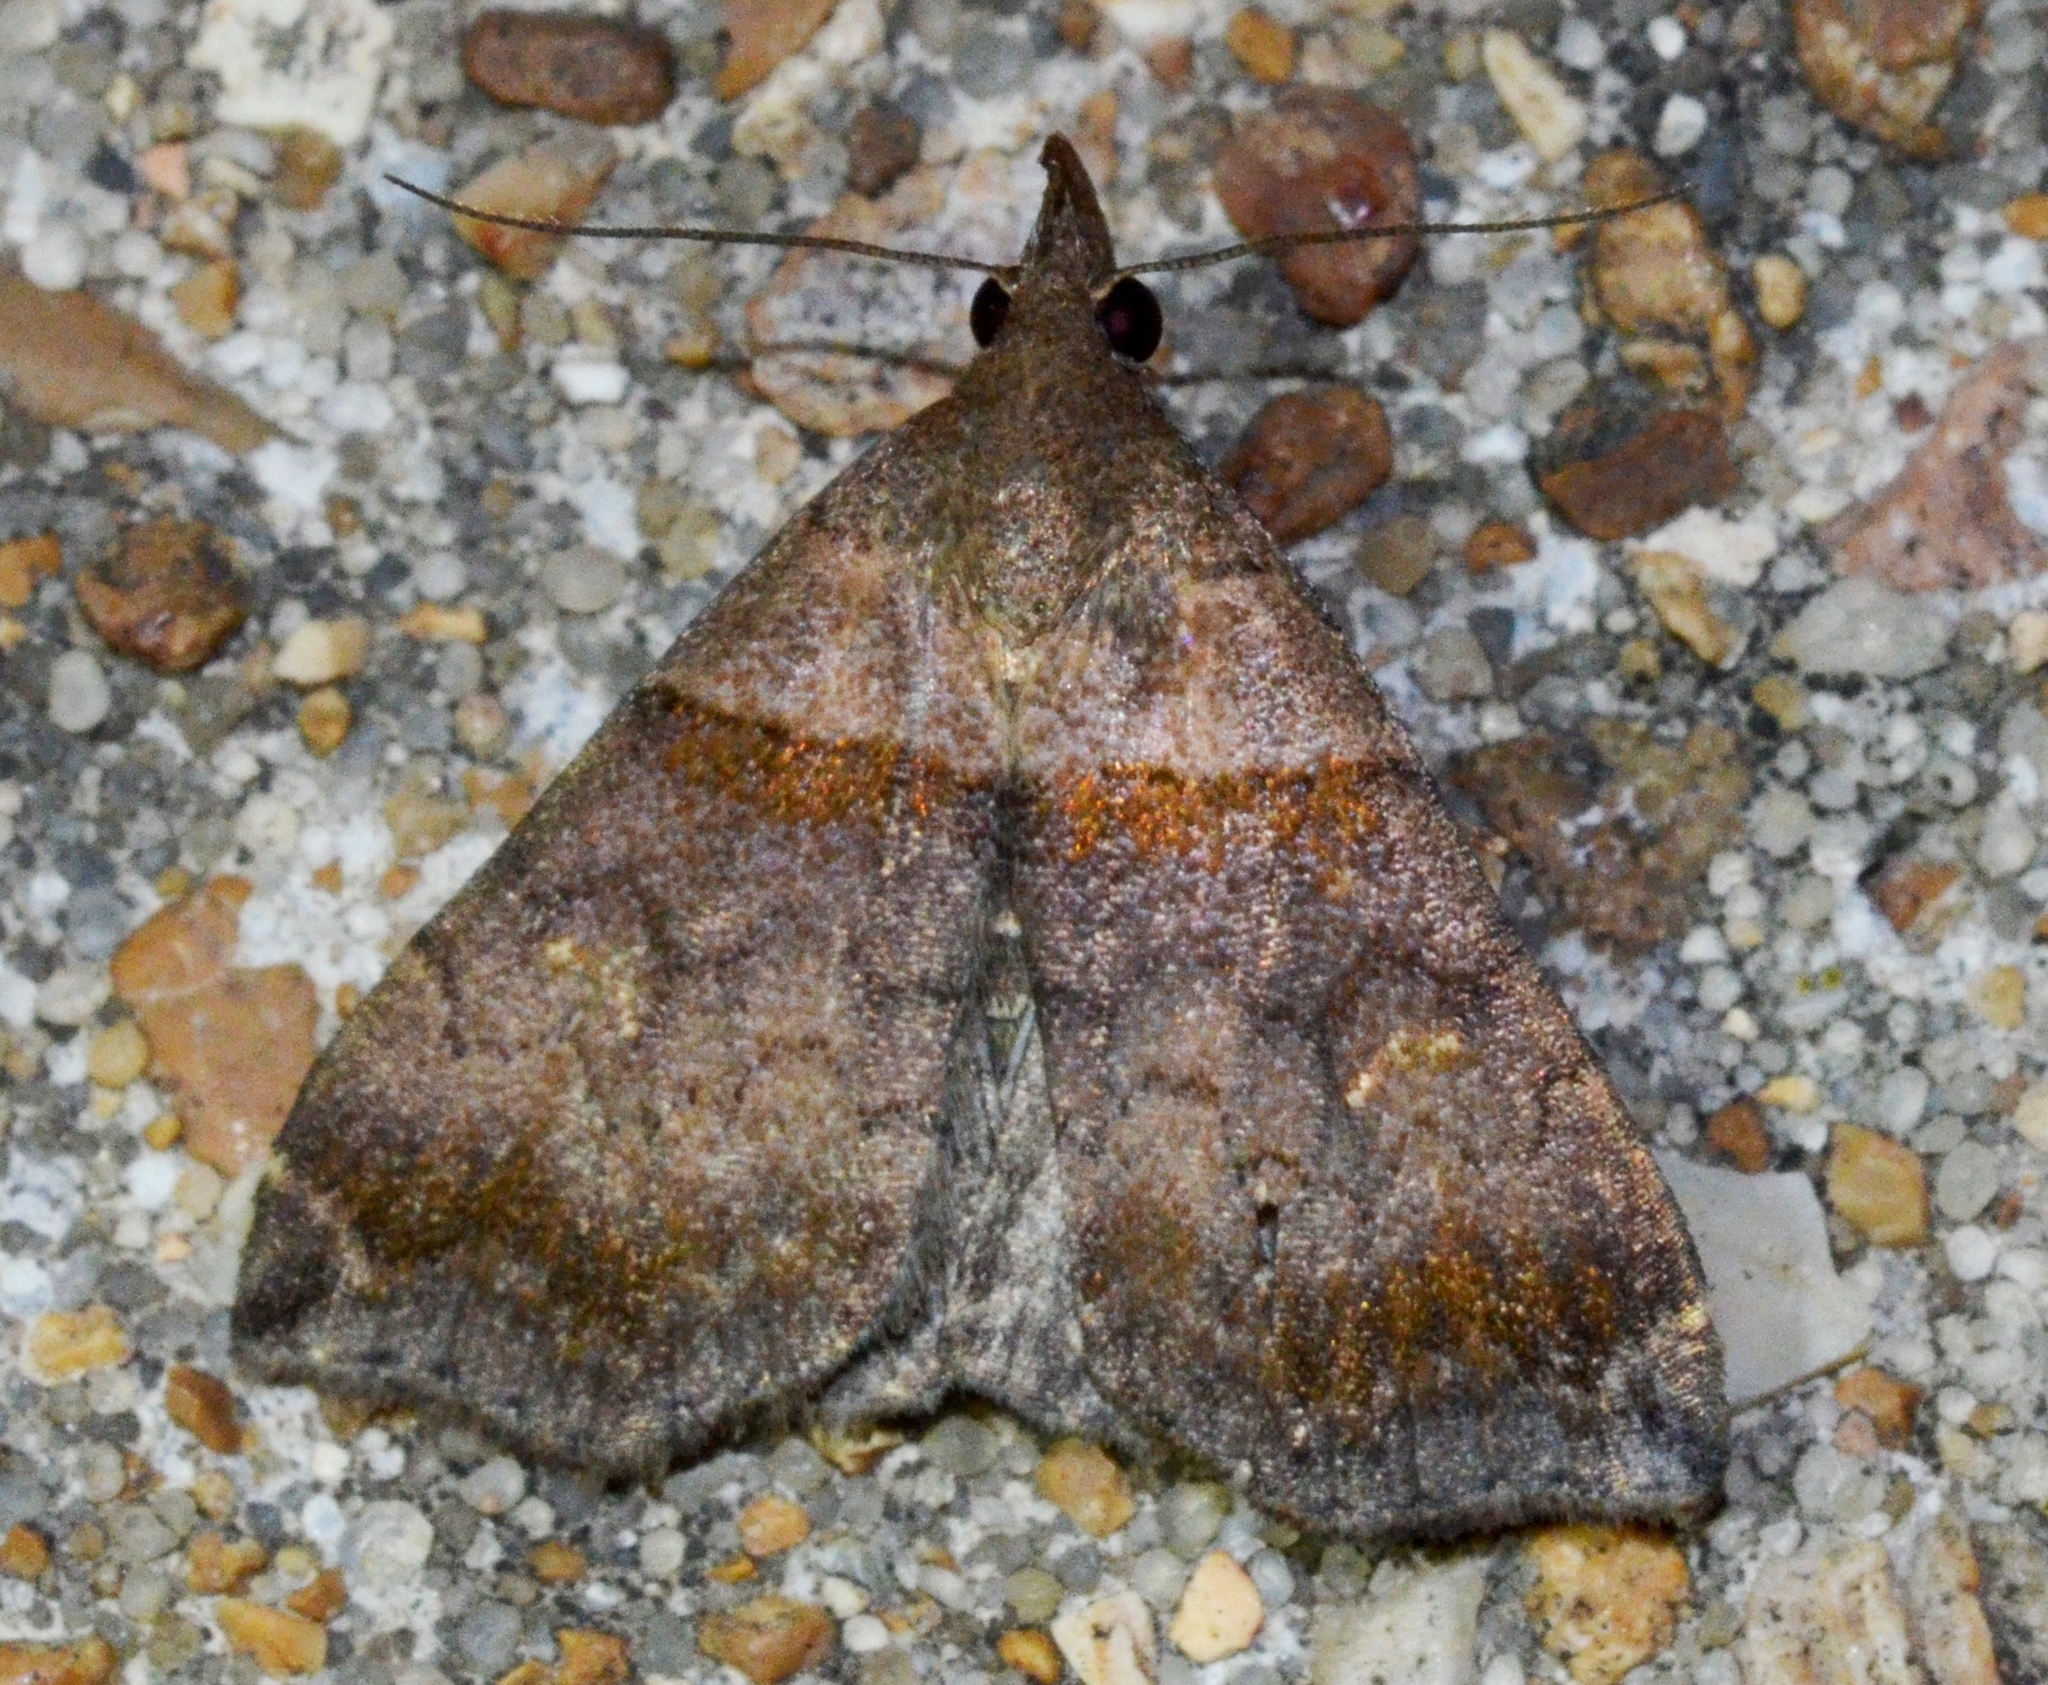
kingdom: Animalia
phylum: Arthropoda
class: Insecta
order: Lepidoptera
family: Erebidae
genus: Lascoria
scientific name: Lascoria ambigualis
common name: Ambiguous moth
